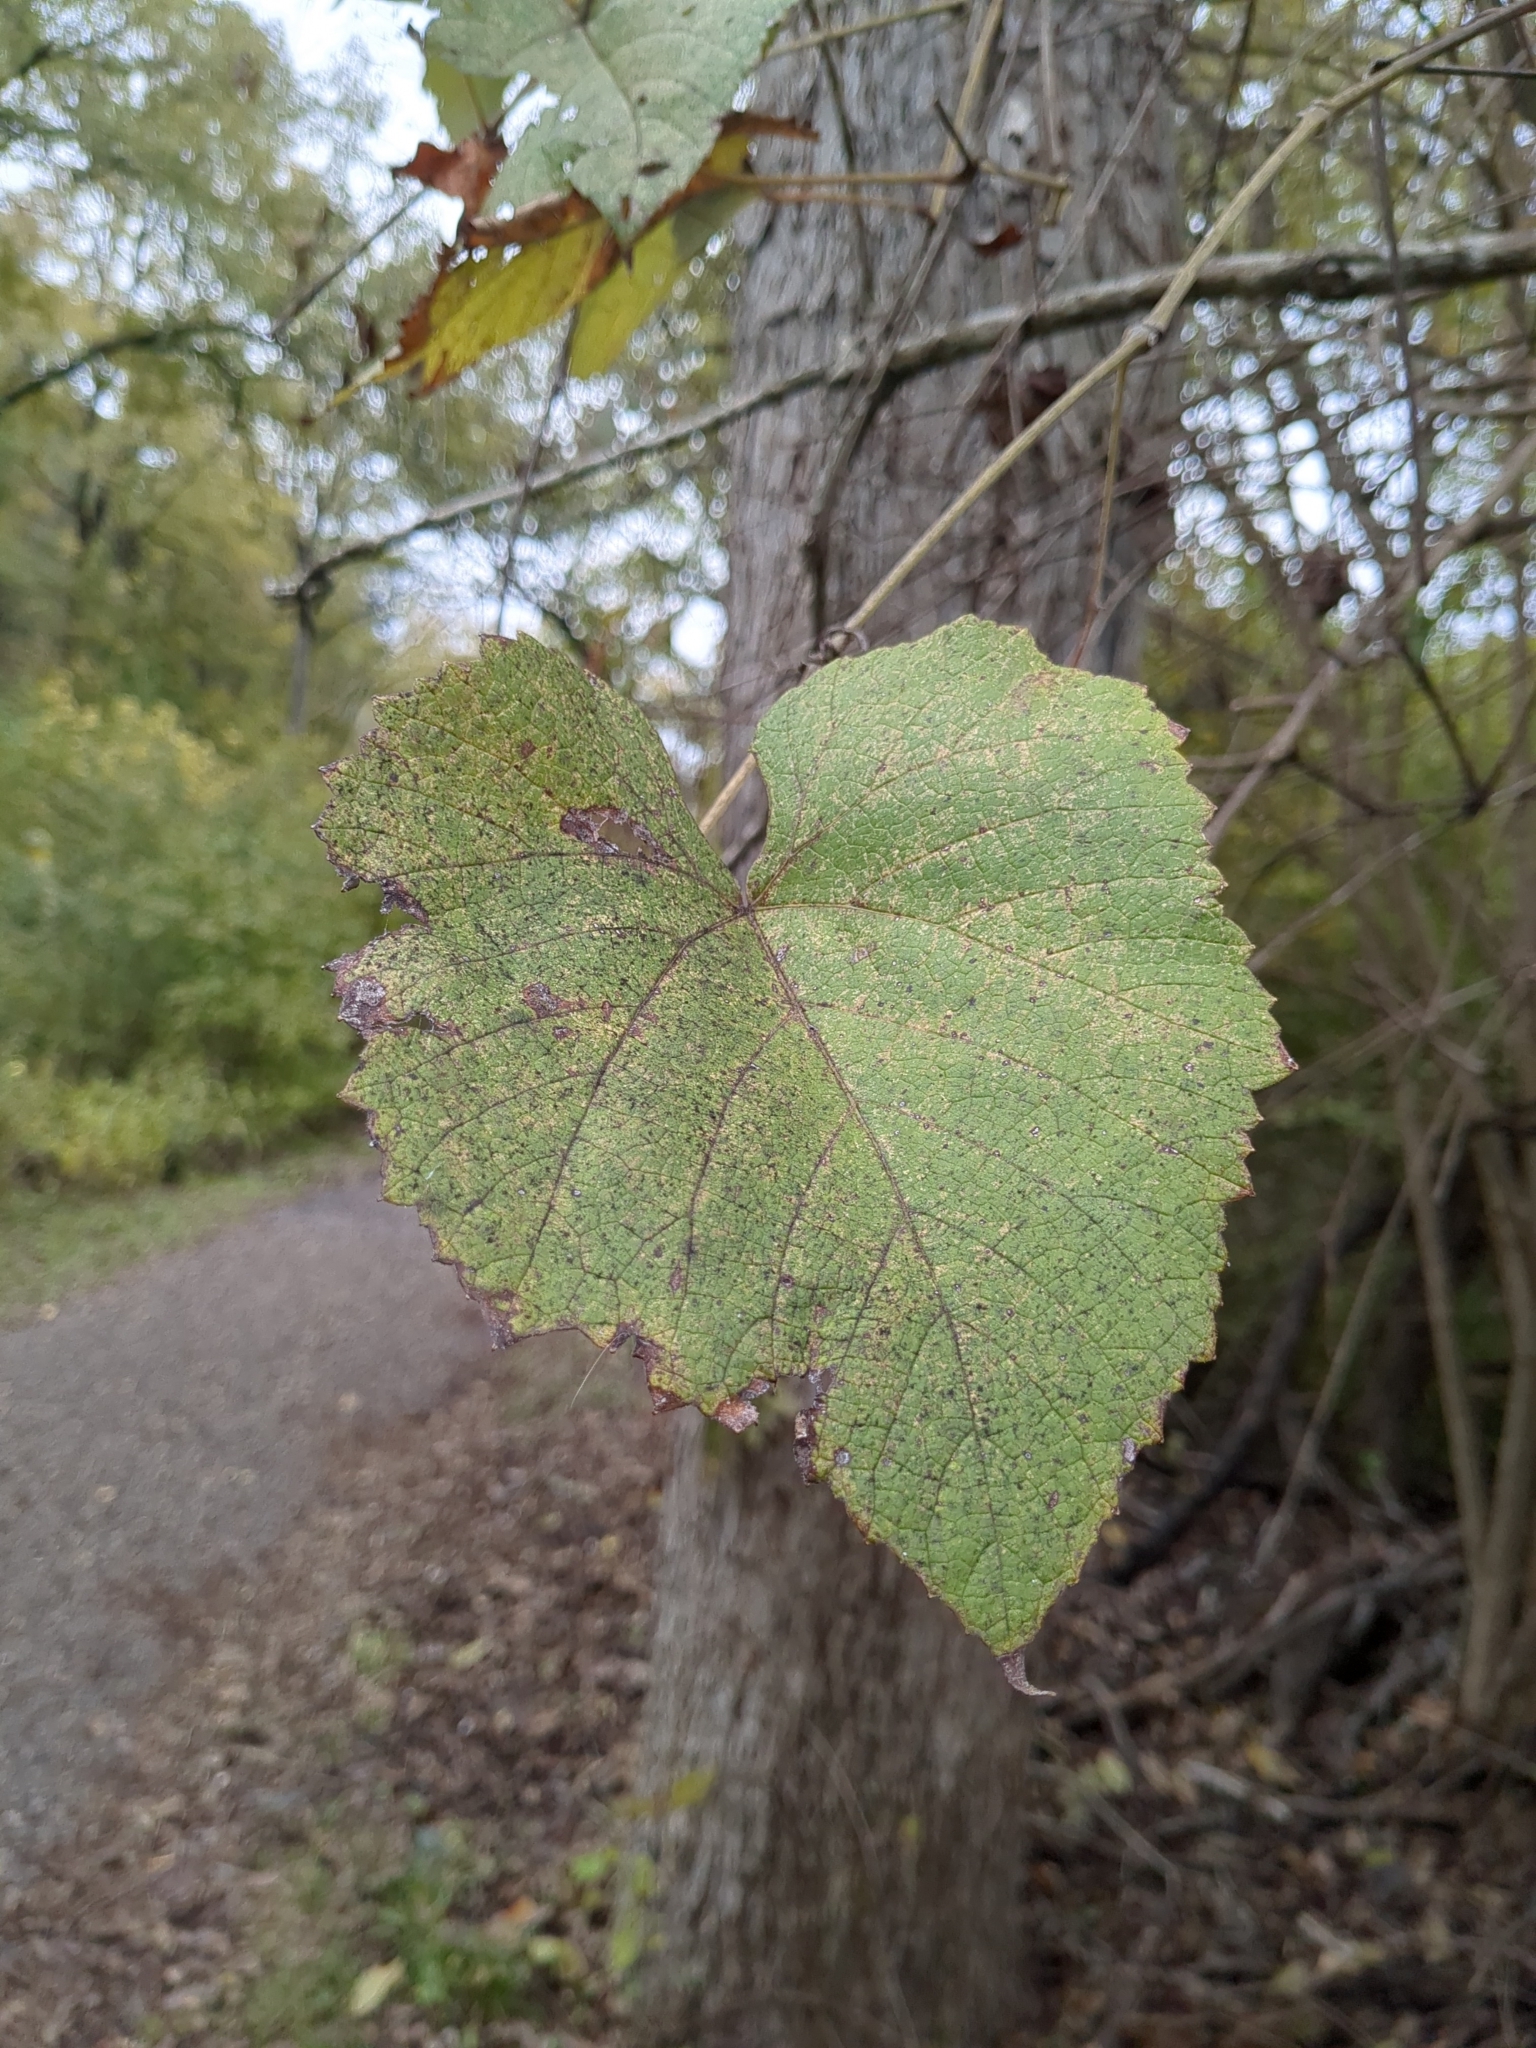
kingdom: Plantae
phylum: Tracheophyta
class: Magnoliopsida
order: Vitales
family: Vitaceae
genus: Vitis
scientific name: Vitis vulpina
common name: Frost grape
